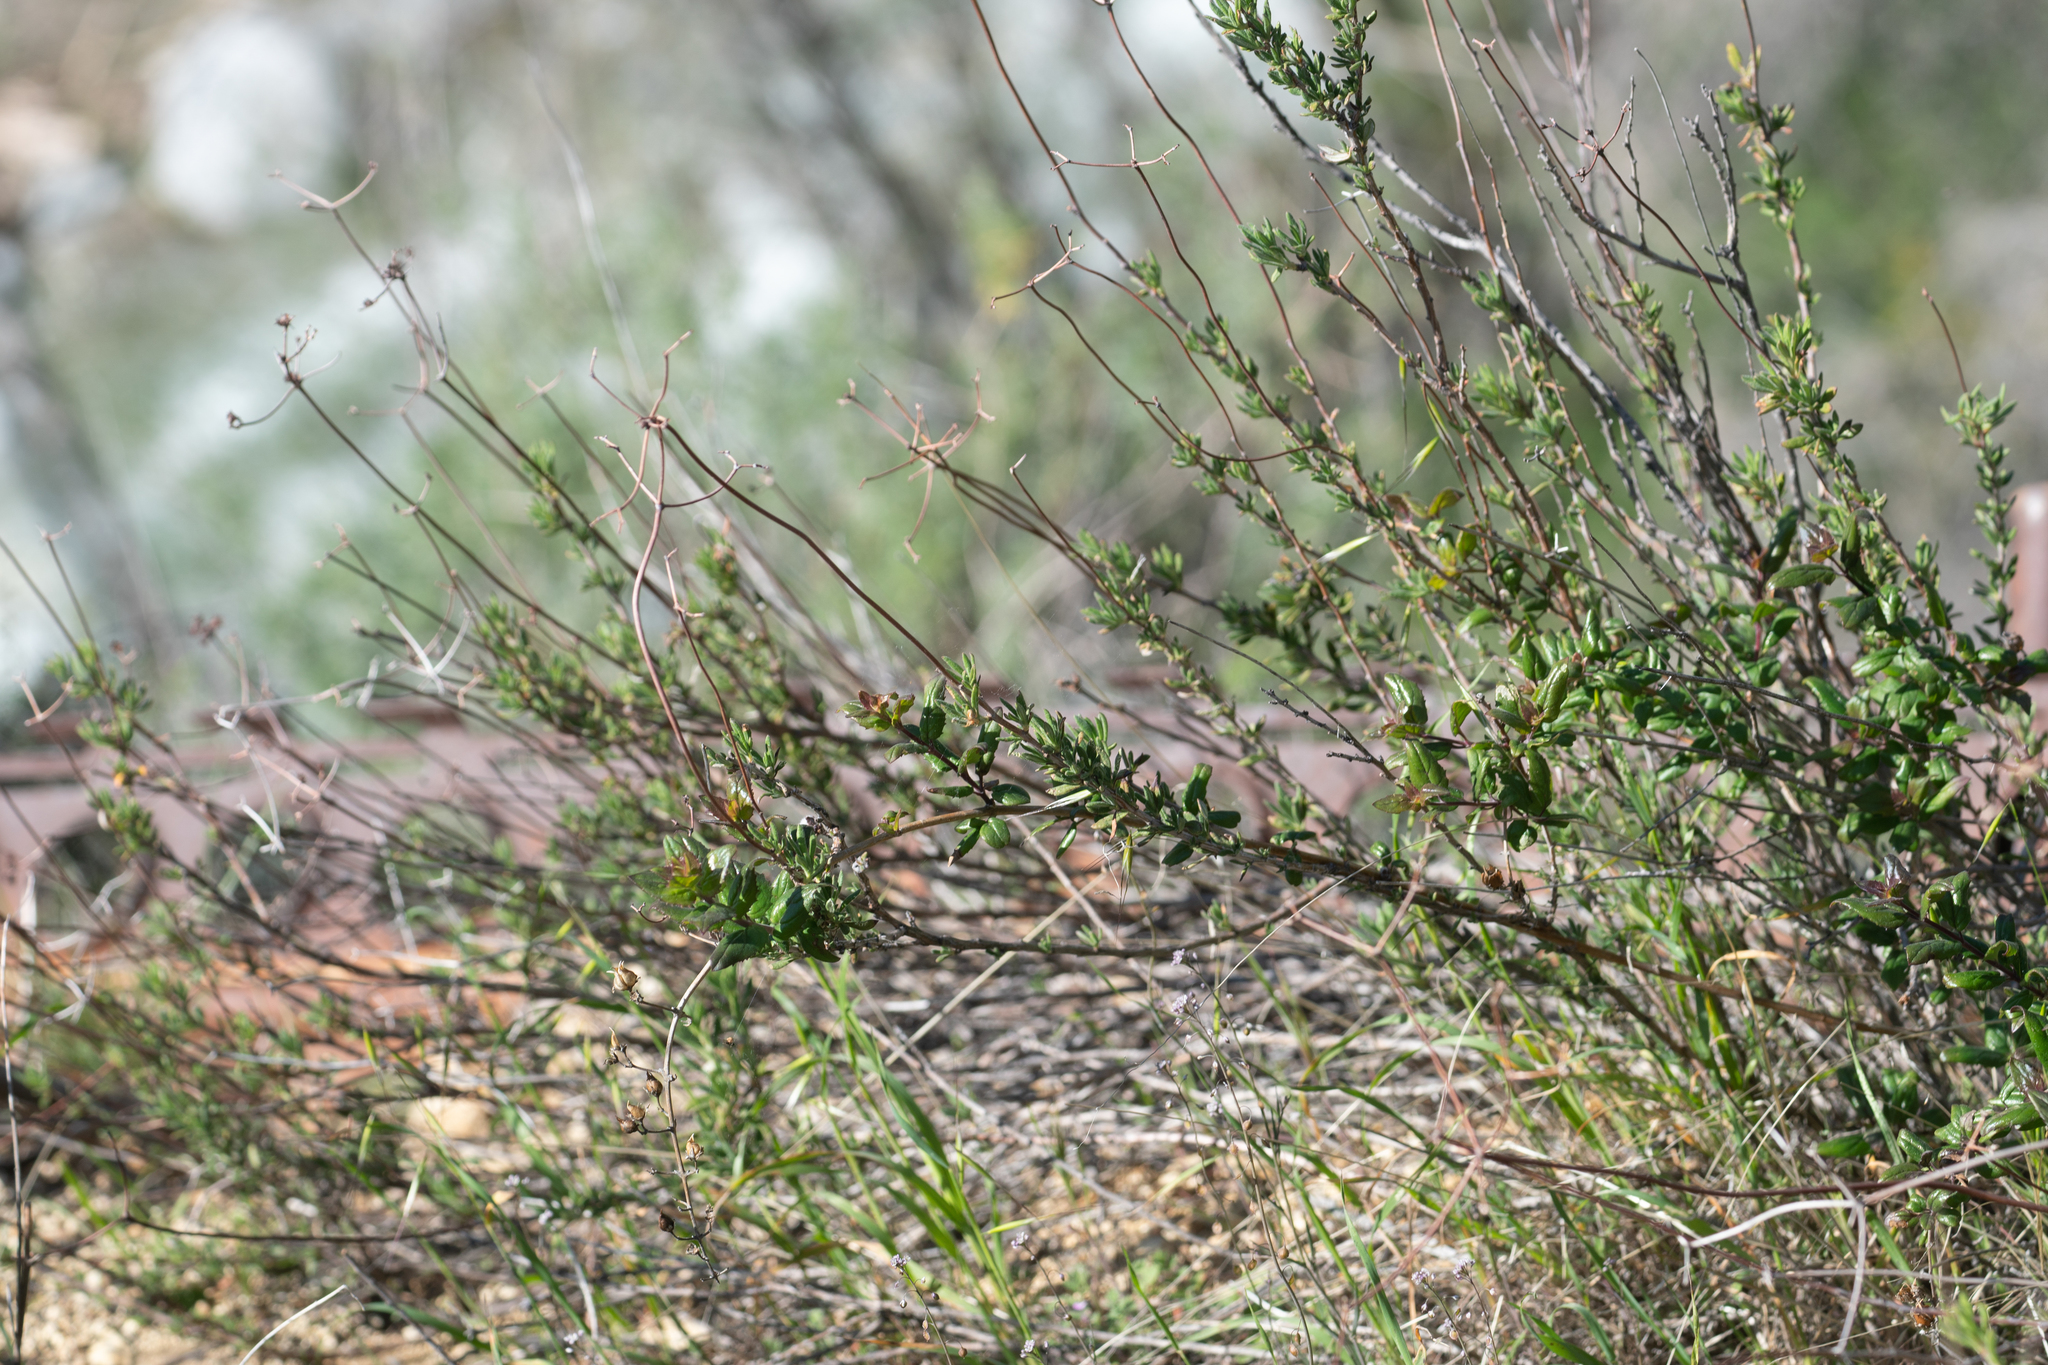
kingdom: Plantae
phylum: Tracheophyta
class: Magnoliopsida
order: Caryophyllales
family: Polygonaceae
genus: Eriogonum
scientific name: Eriogonum fasciculatum
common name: California wild buckwheat
